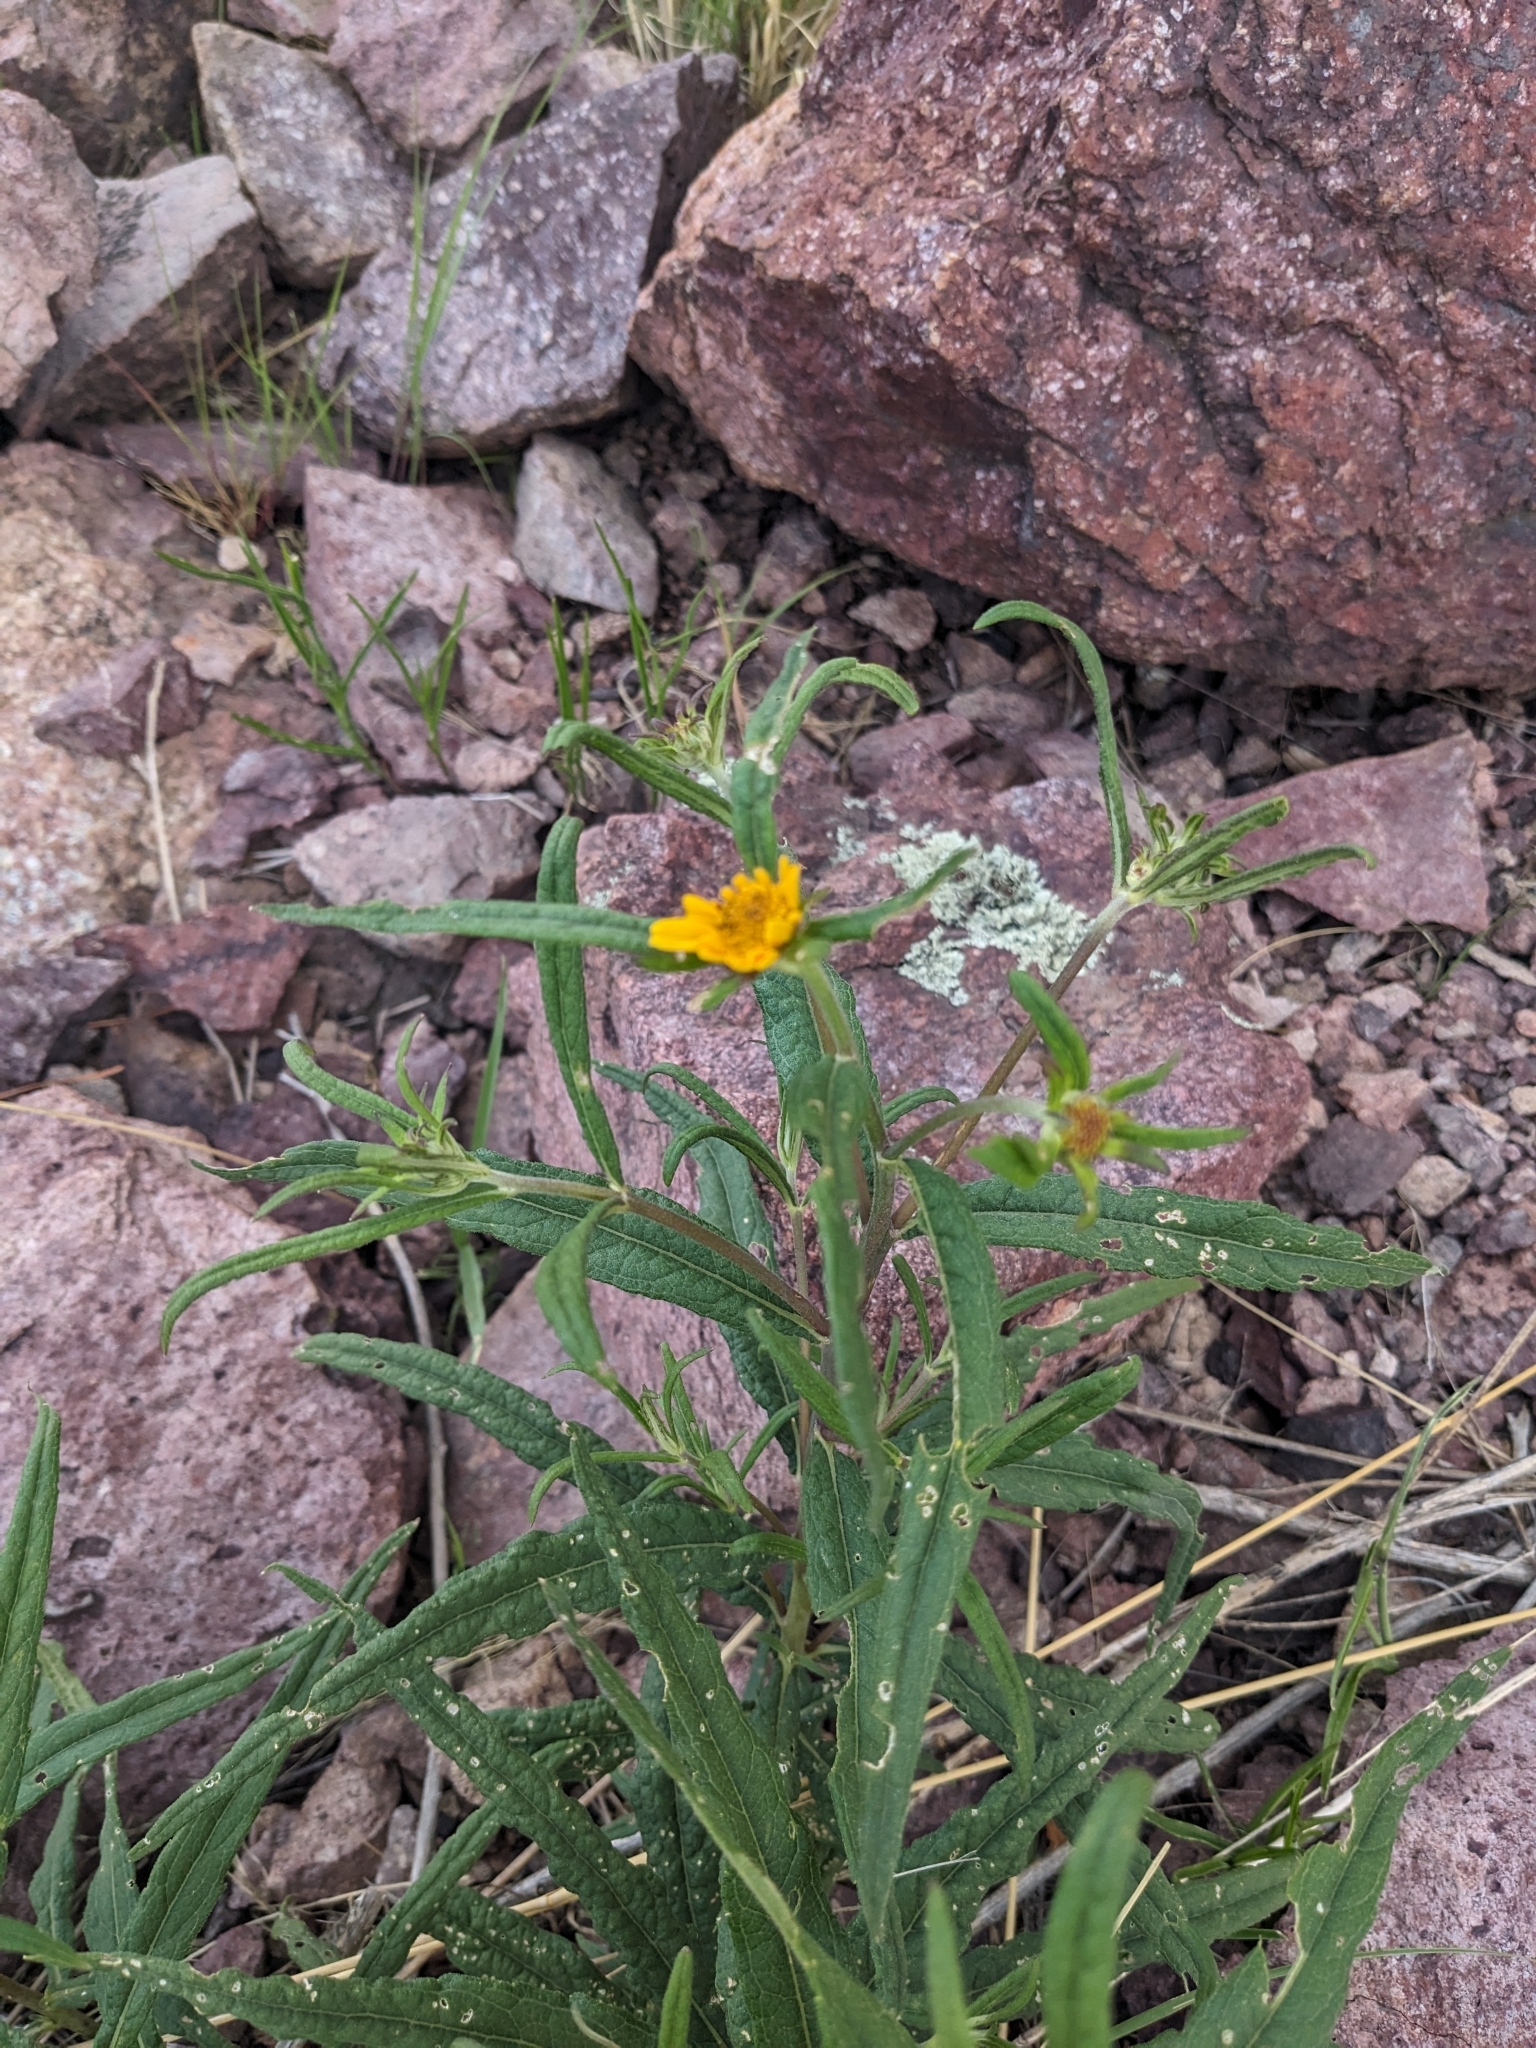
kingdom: Plantae
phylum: Tracheophyta
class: Magnoliopsida
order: Asterales
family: Asteraceae
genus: Verbesina
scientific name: Verbesina longifolia
